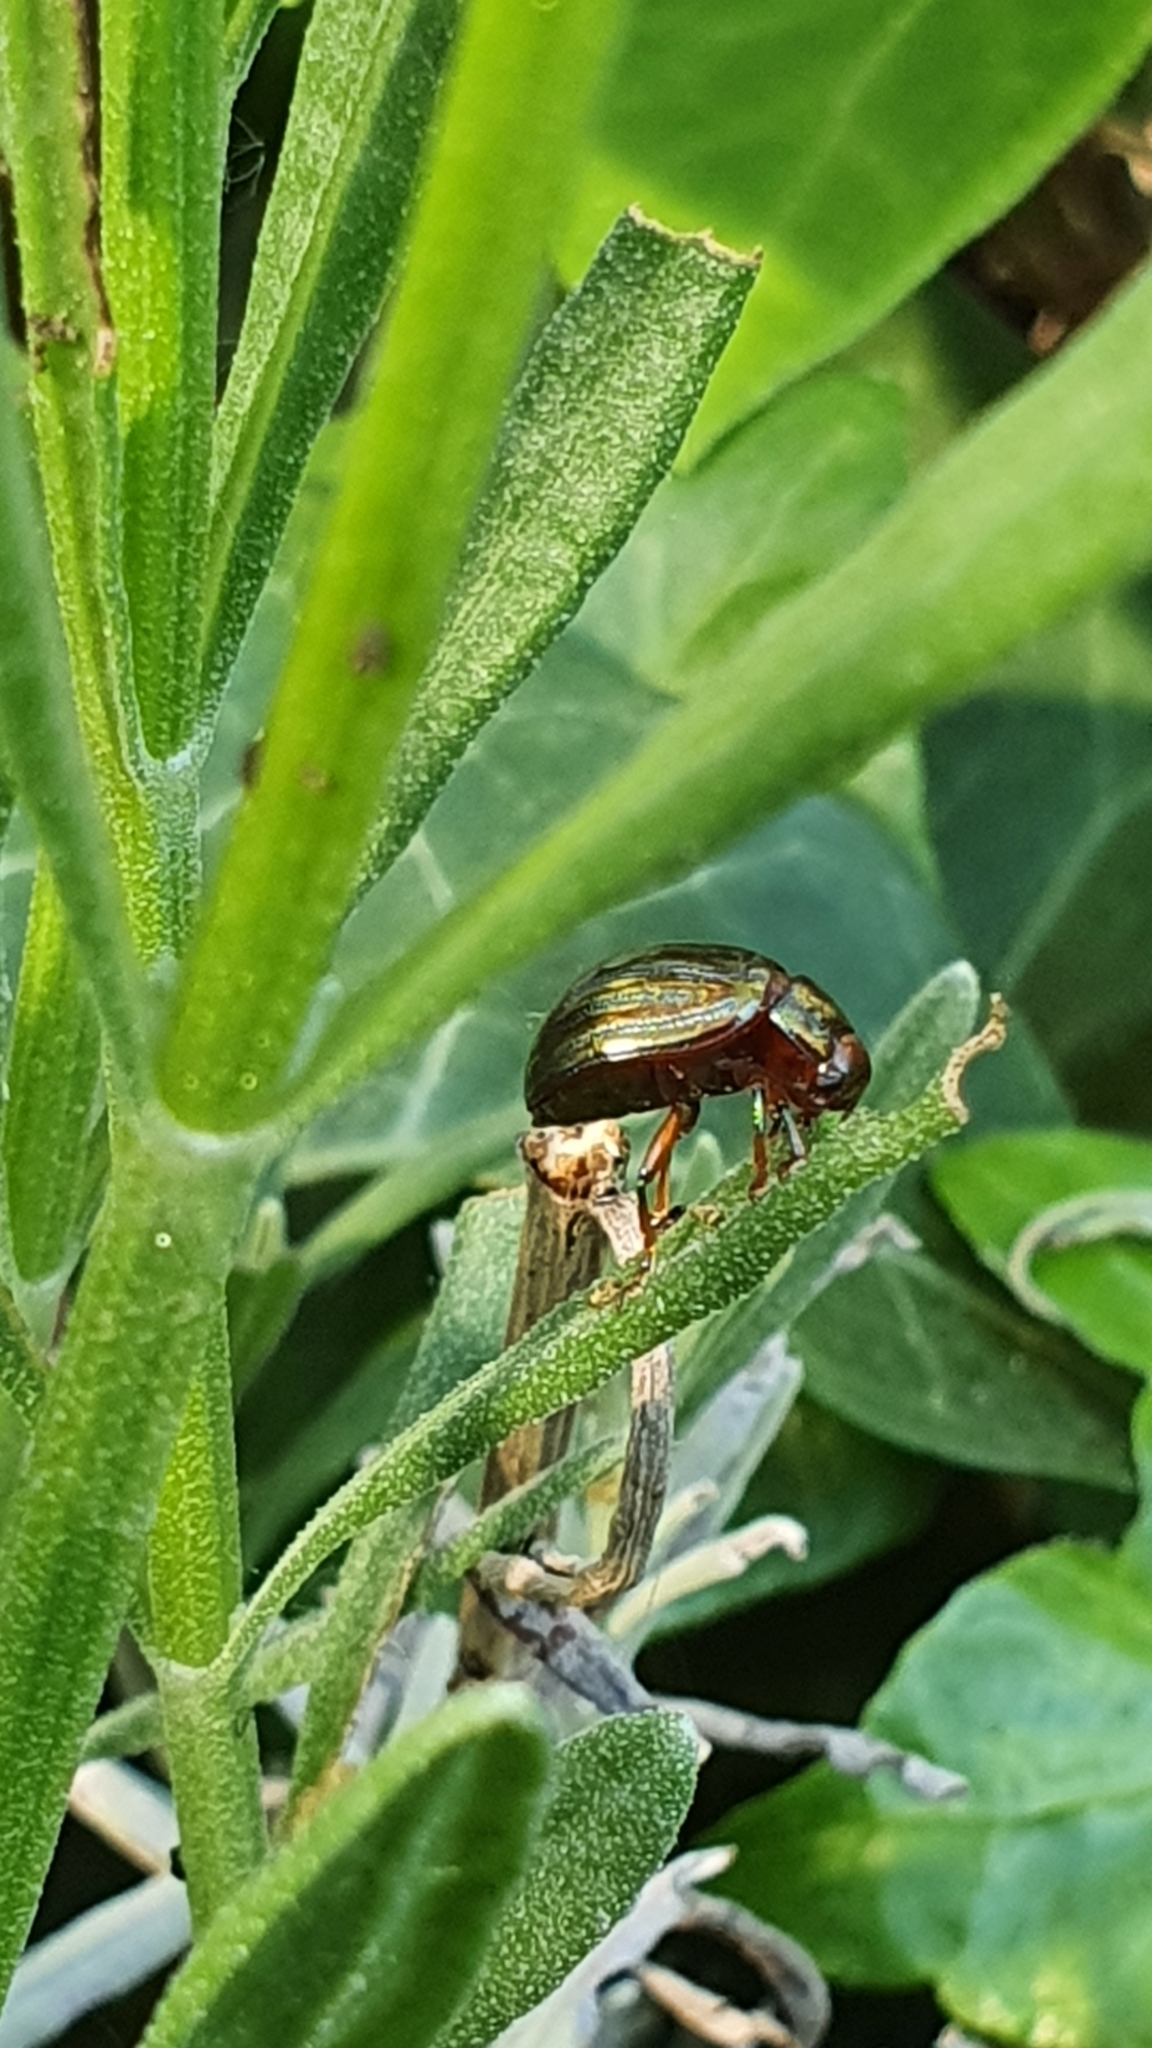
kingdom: Animalia
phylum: Arthropoda
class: Insecta
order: Coleoptera
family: Chrysomelidae
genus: Chrysolina
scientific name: Chrysolina americana
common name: Rosemary beetle
